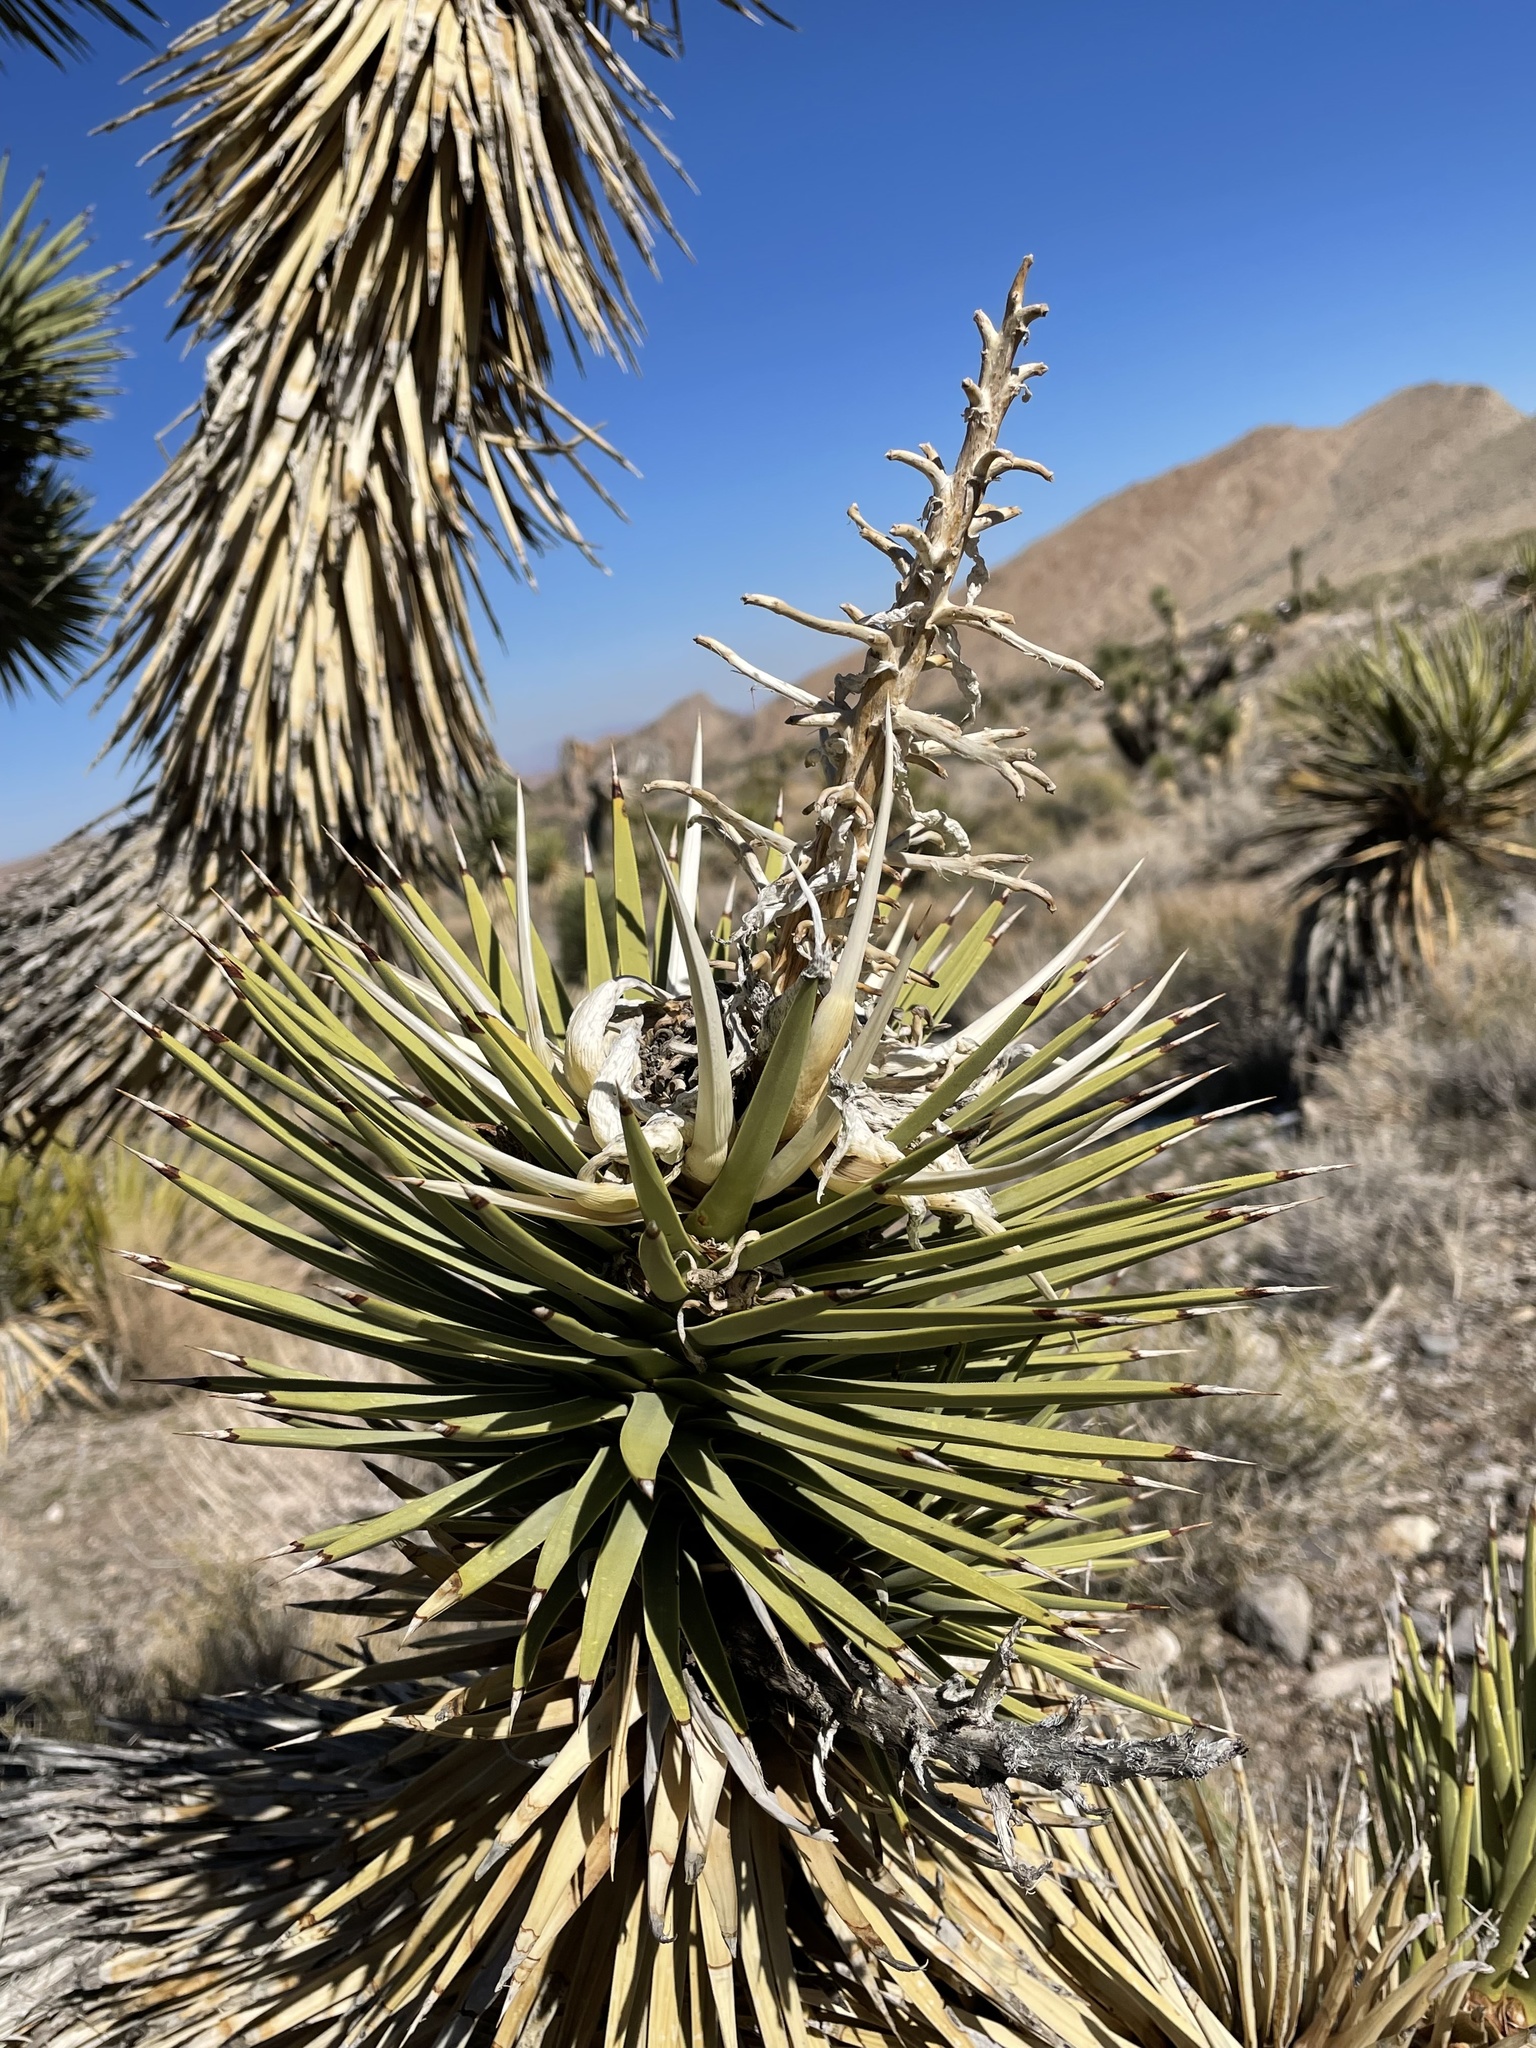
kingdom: Plantae
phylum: Tracheophyta
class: Liliopsida
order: Asparagales
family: Asparagaceae
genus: Yucca
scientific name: Yucca brevifolia
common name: Joshua tree
